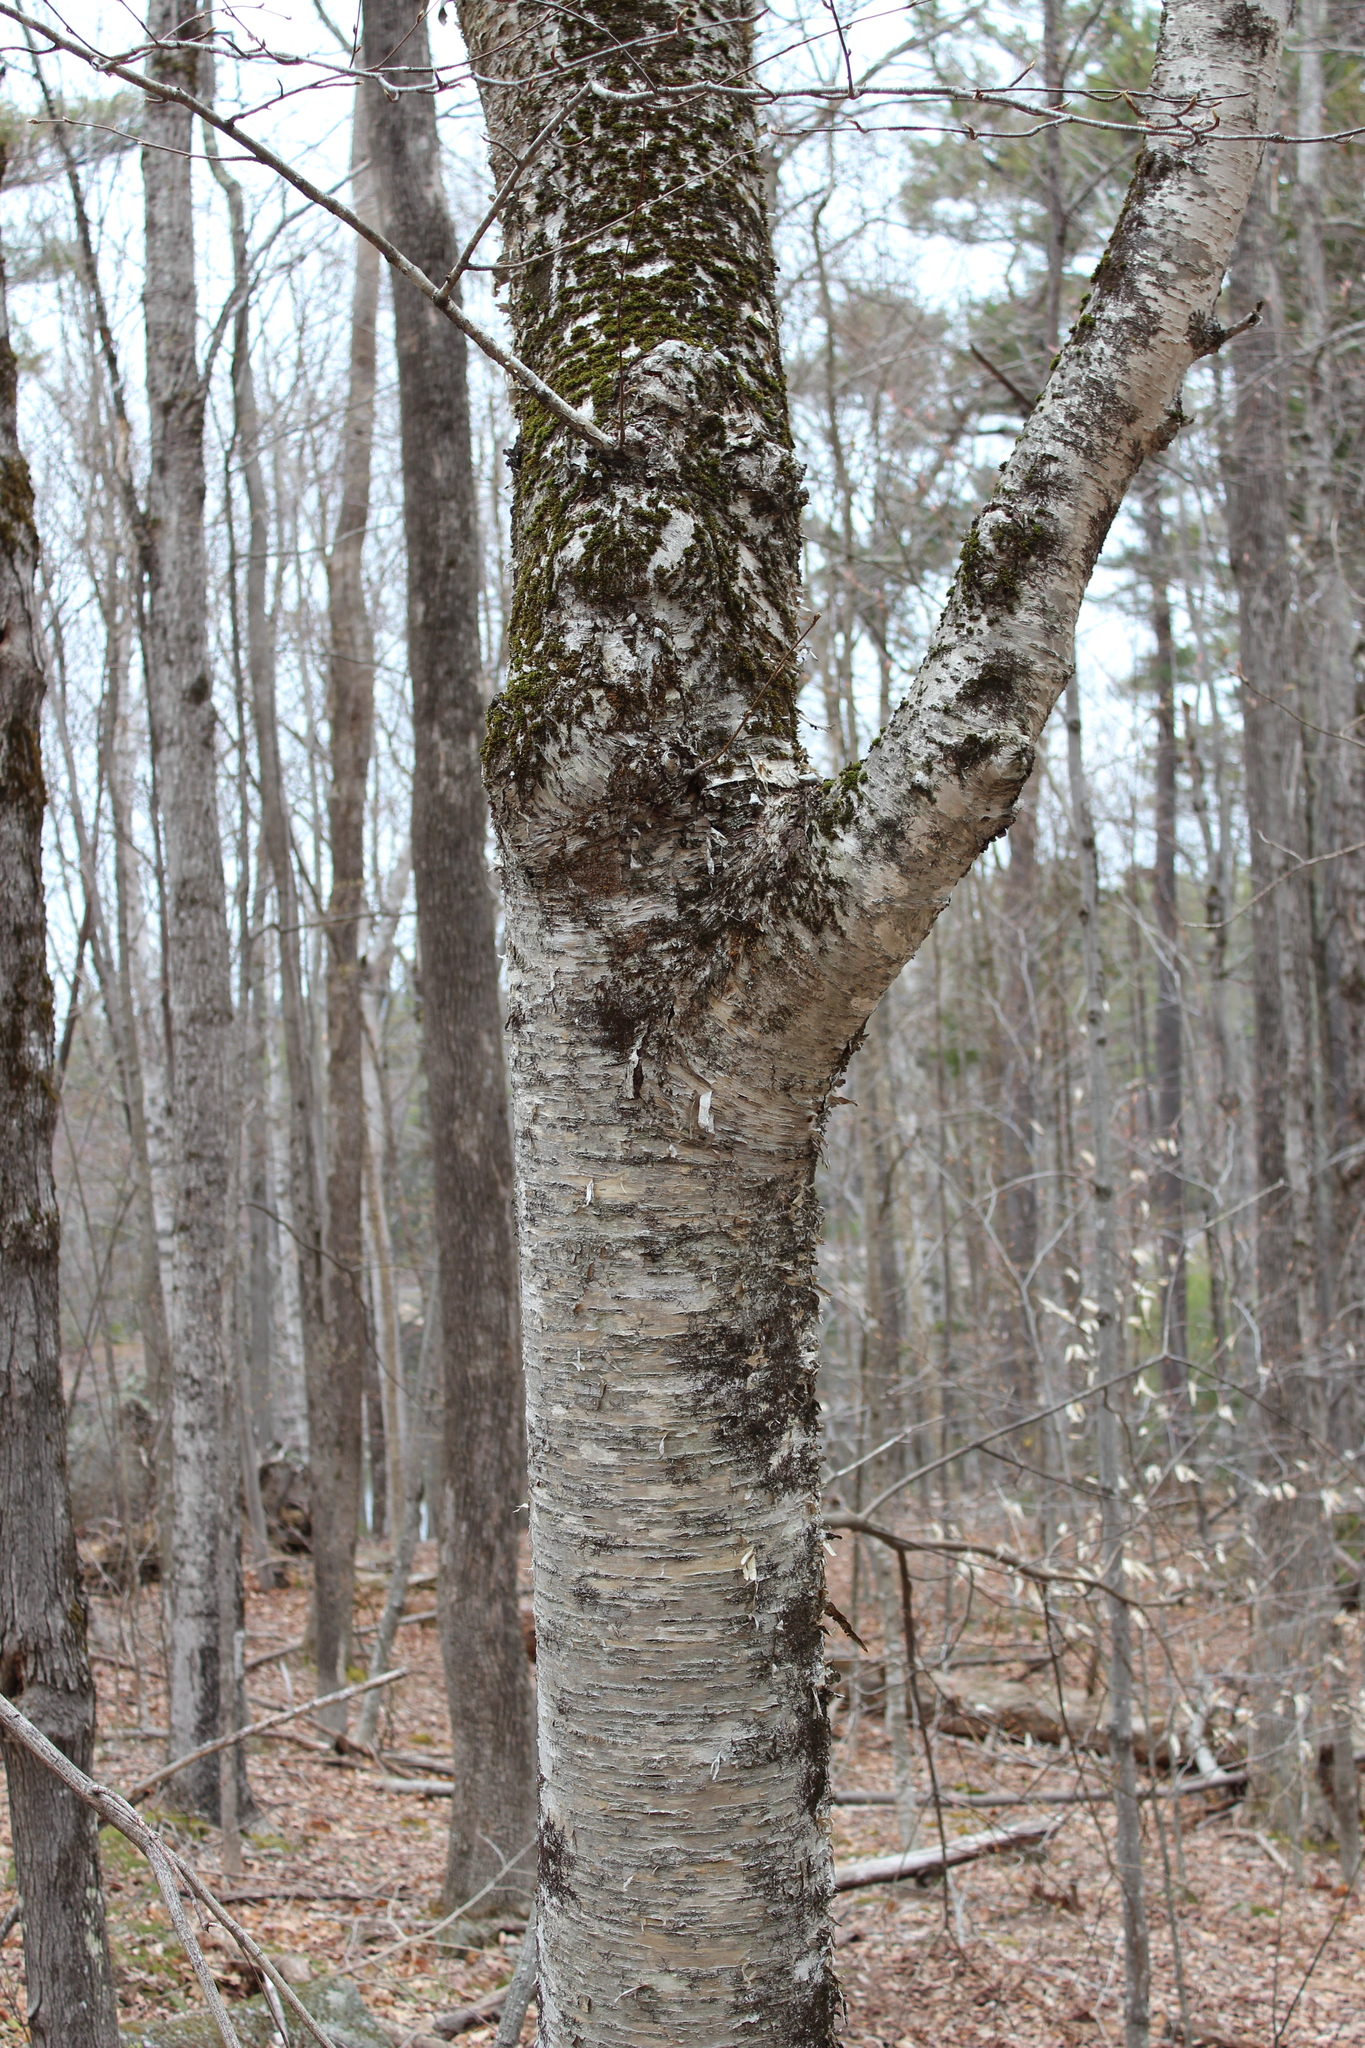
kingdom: Plantae
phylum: Tracheophyta
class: Magnoliopsida
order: Fagales
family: Betulaceae
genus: Betula
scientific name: Betula alleghaniensis
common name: Yellow birch
